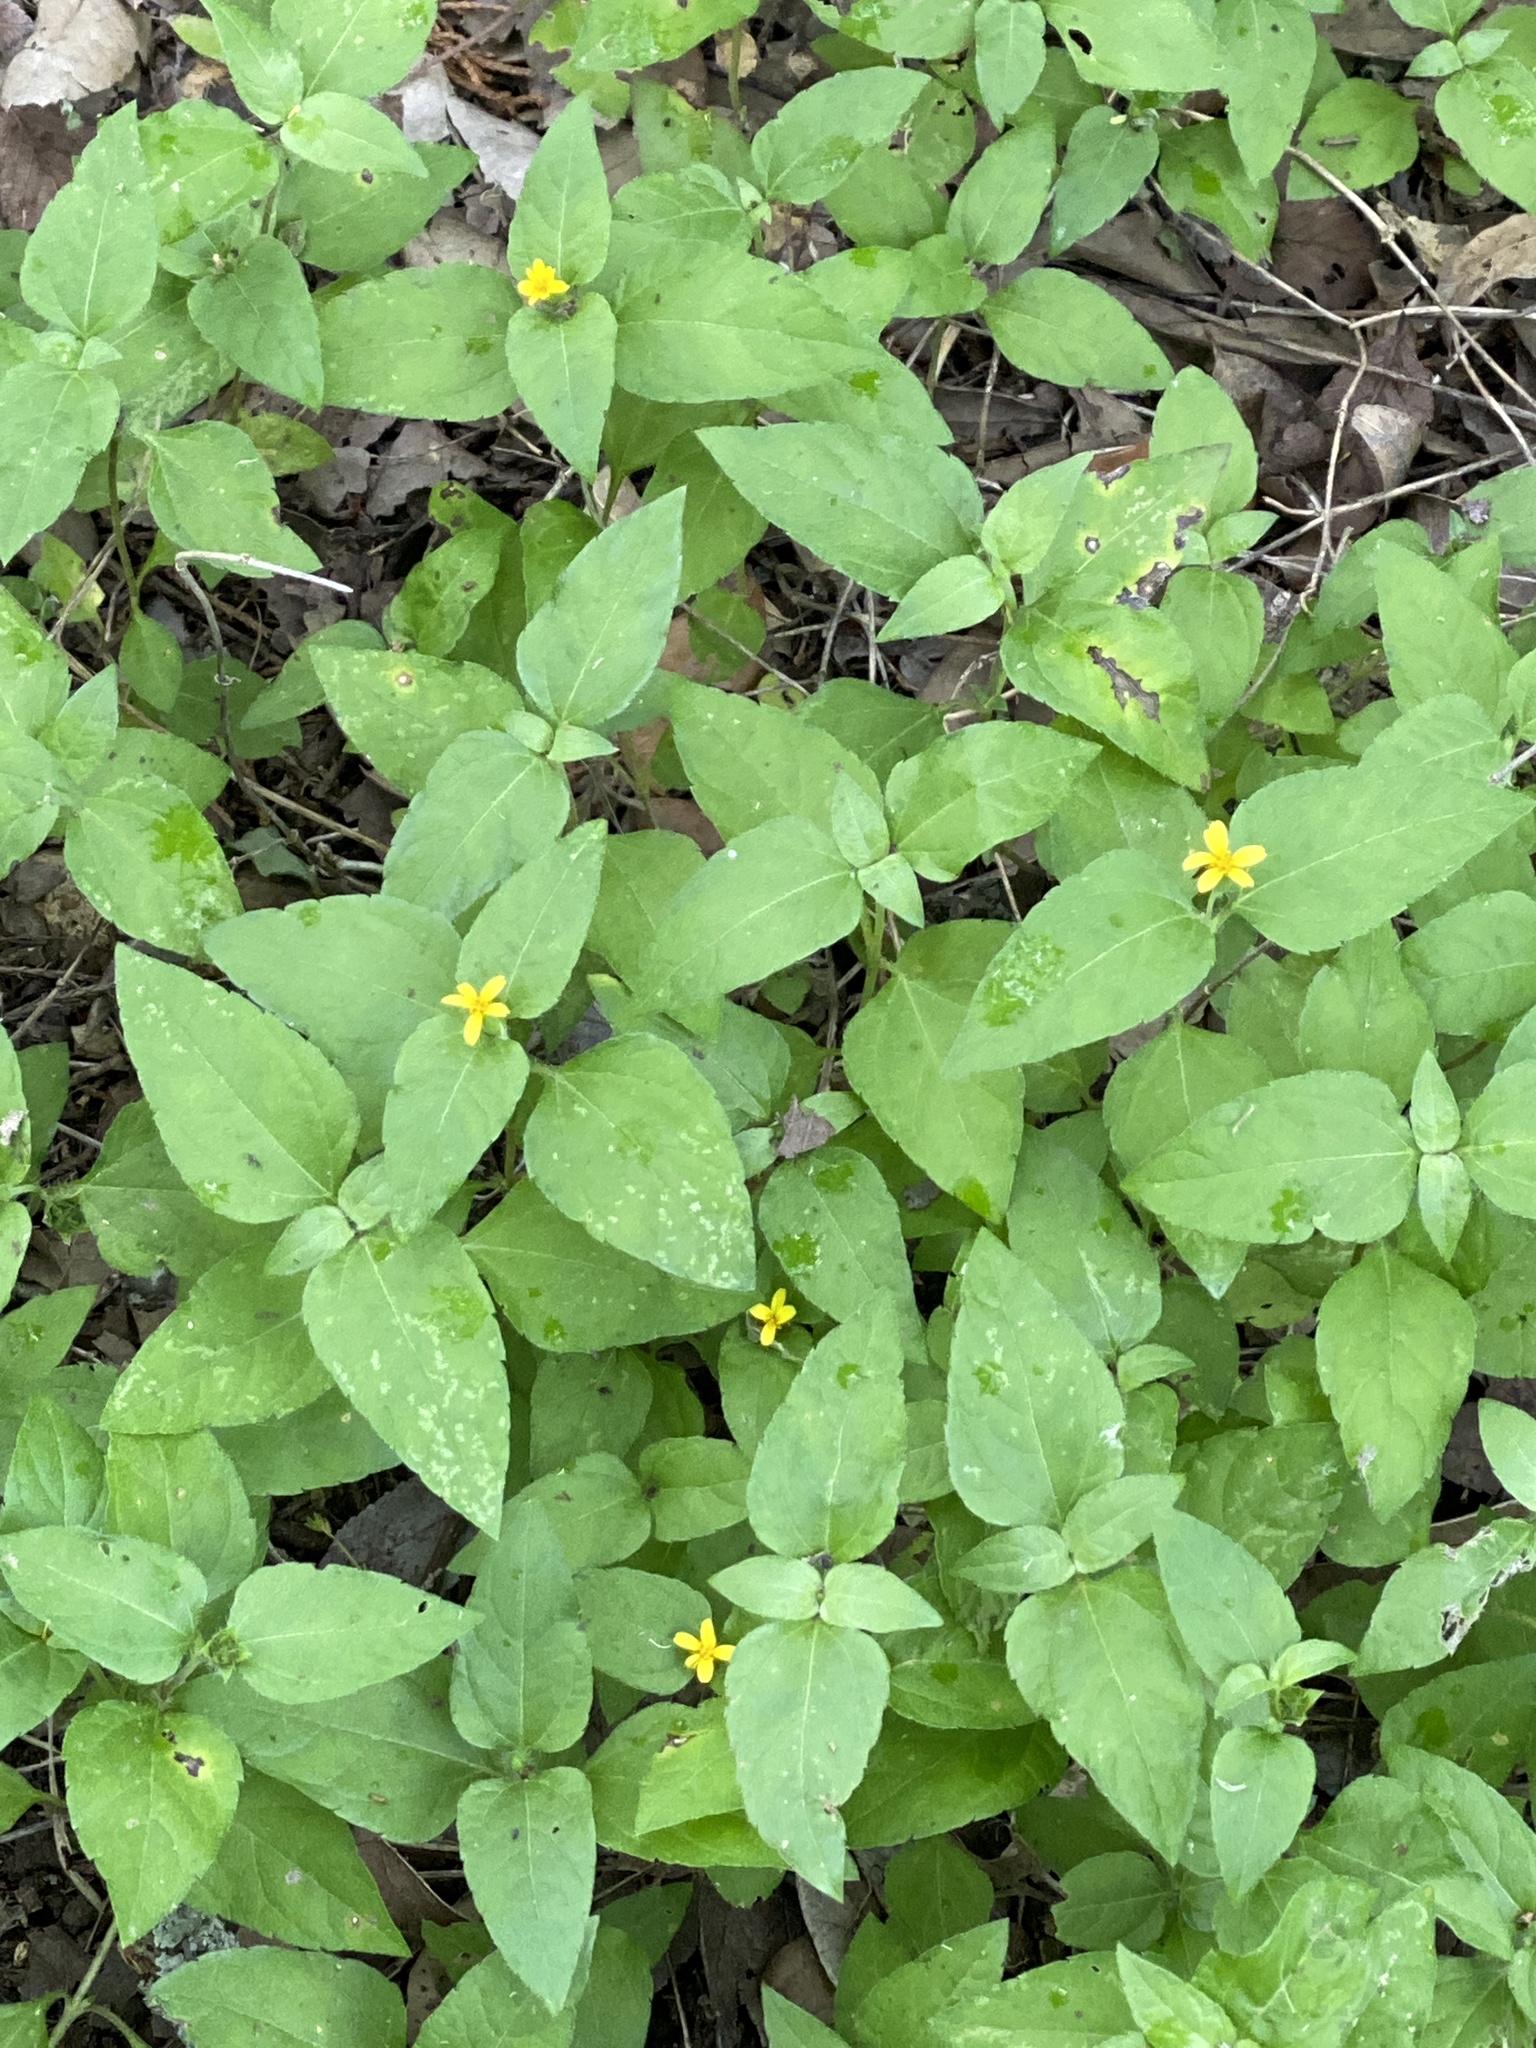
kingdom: Plantae
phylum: Tracheophyta
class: Magnoliopsida
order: Asterales
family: Asteraceae
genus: Calyptocarpus
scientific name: Calyptocarpus vialis
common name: Straggler daisy
